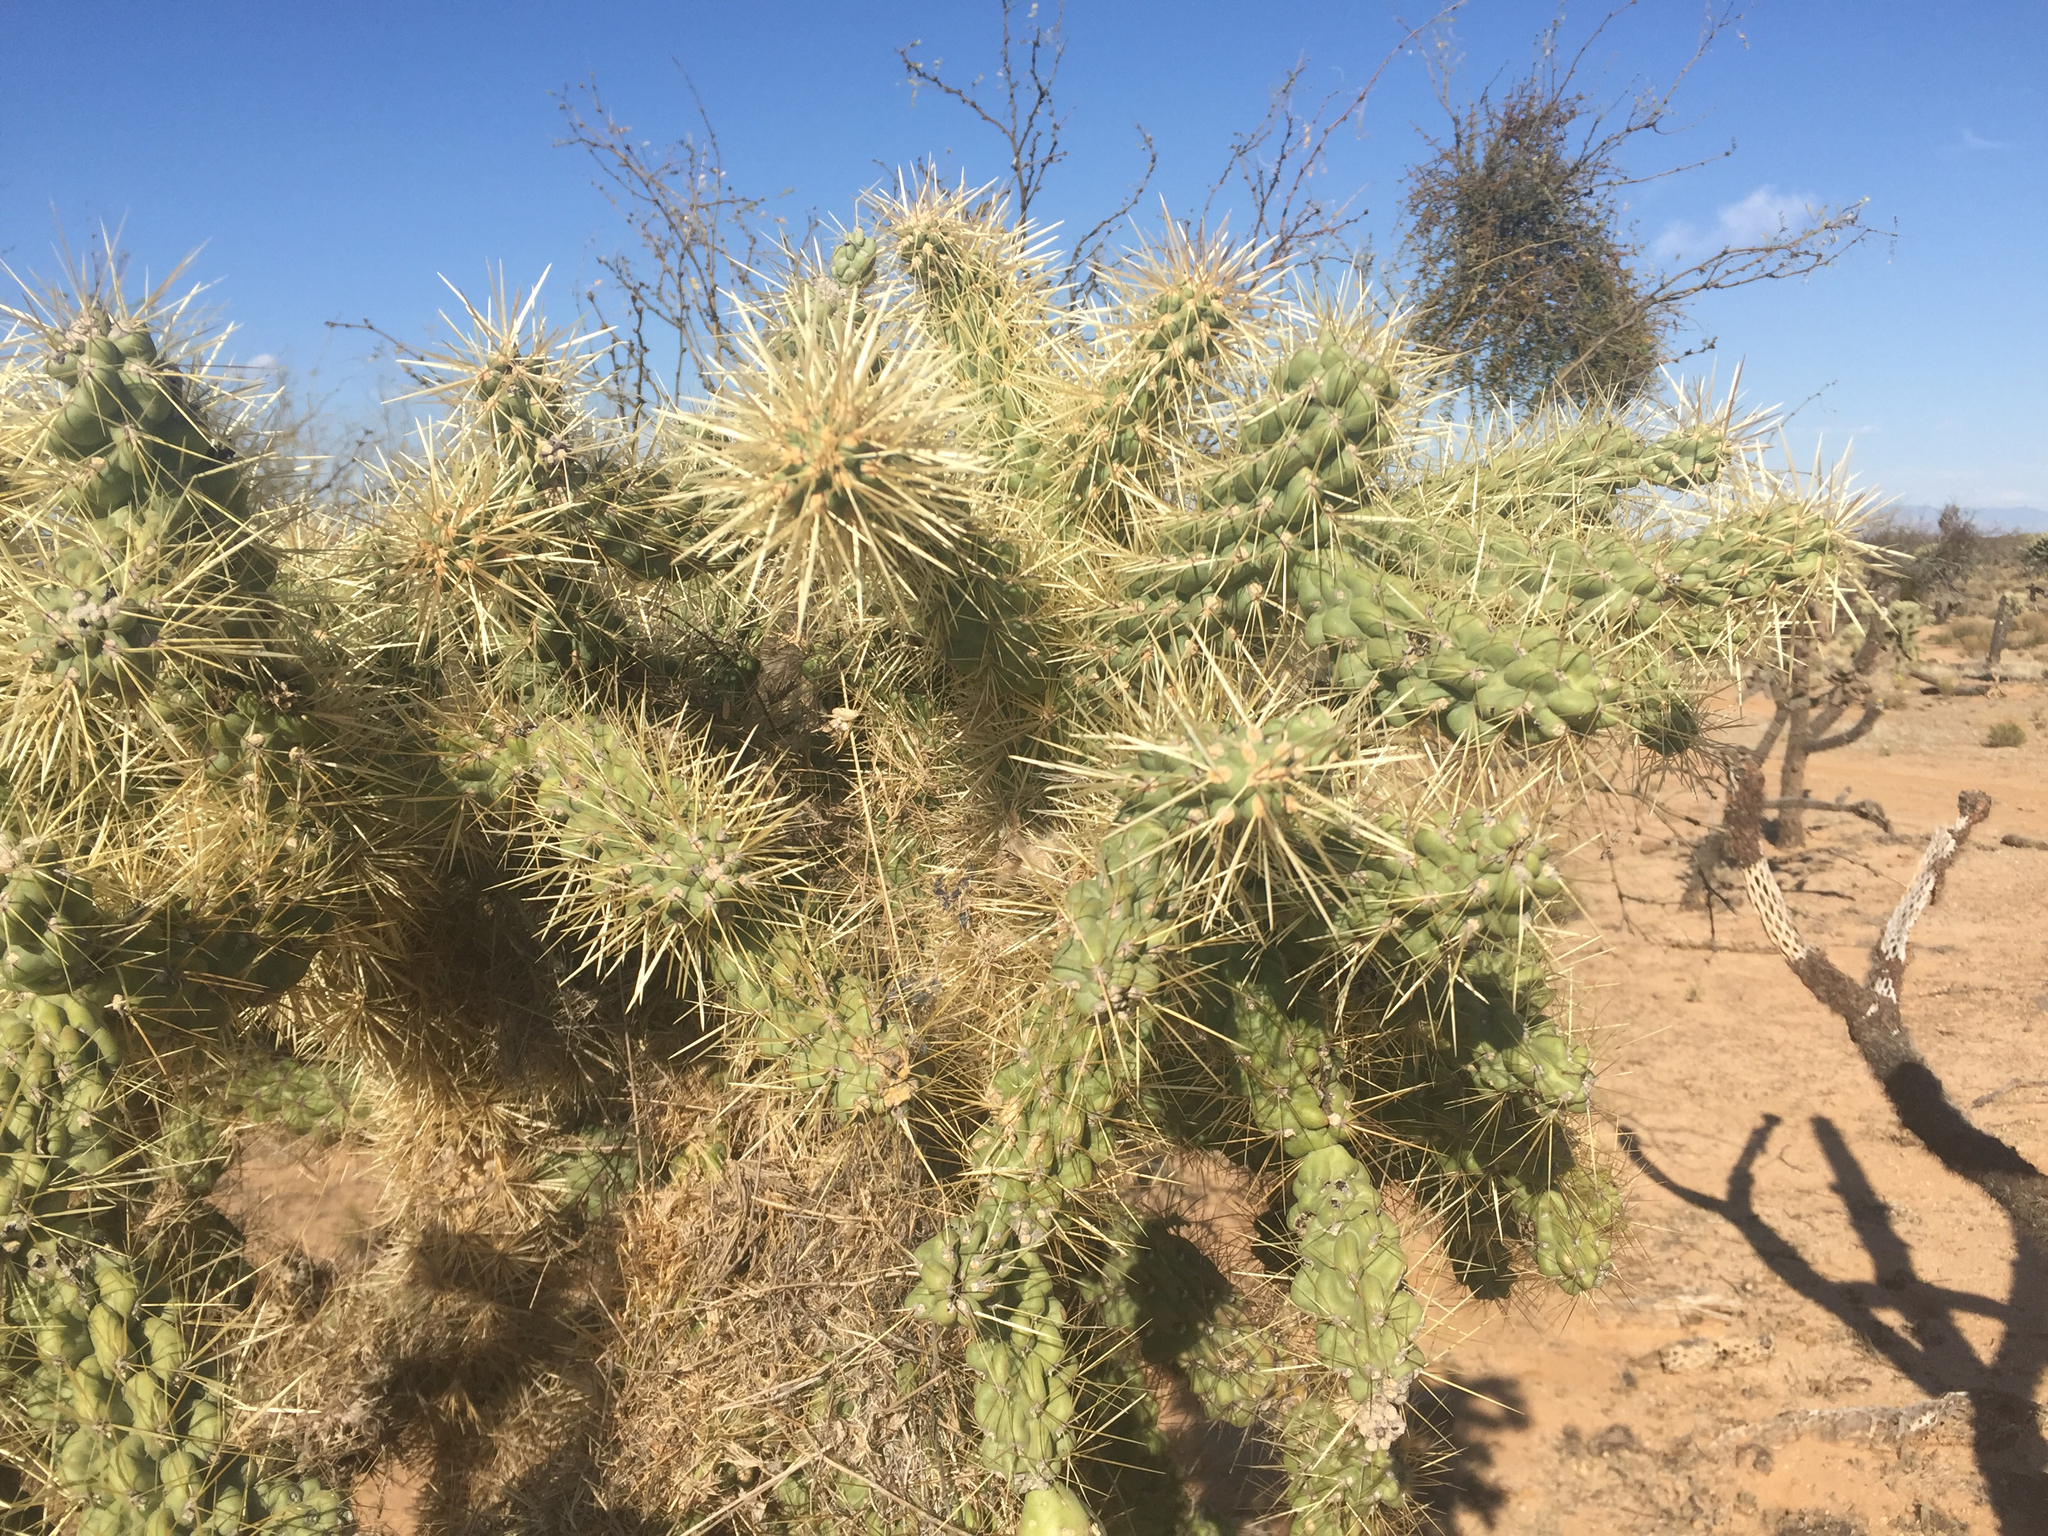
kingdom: Plantae
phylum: Tracheophyta
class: Magnoliopsida
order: Caryophyllales
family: Cactaceae
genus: Cylindropuntia
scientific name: Cylindropuntia fulgida
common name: Jumping cholla
